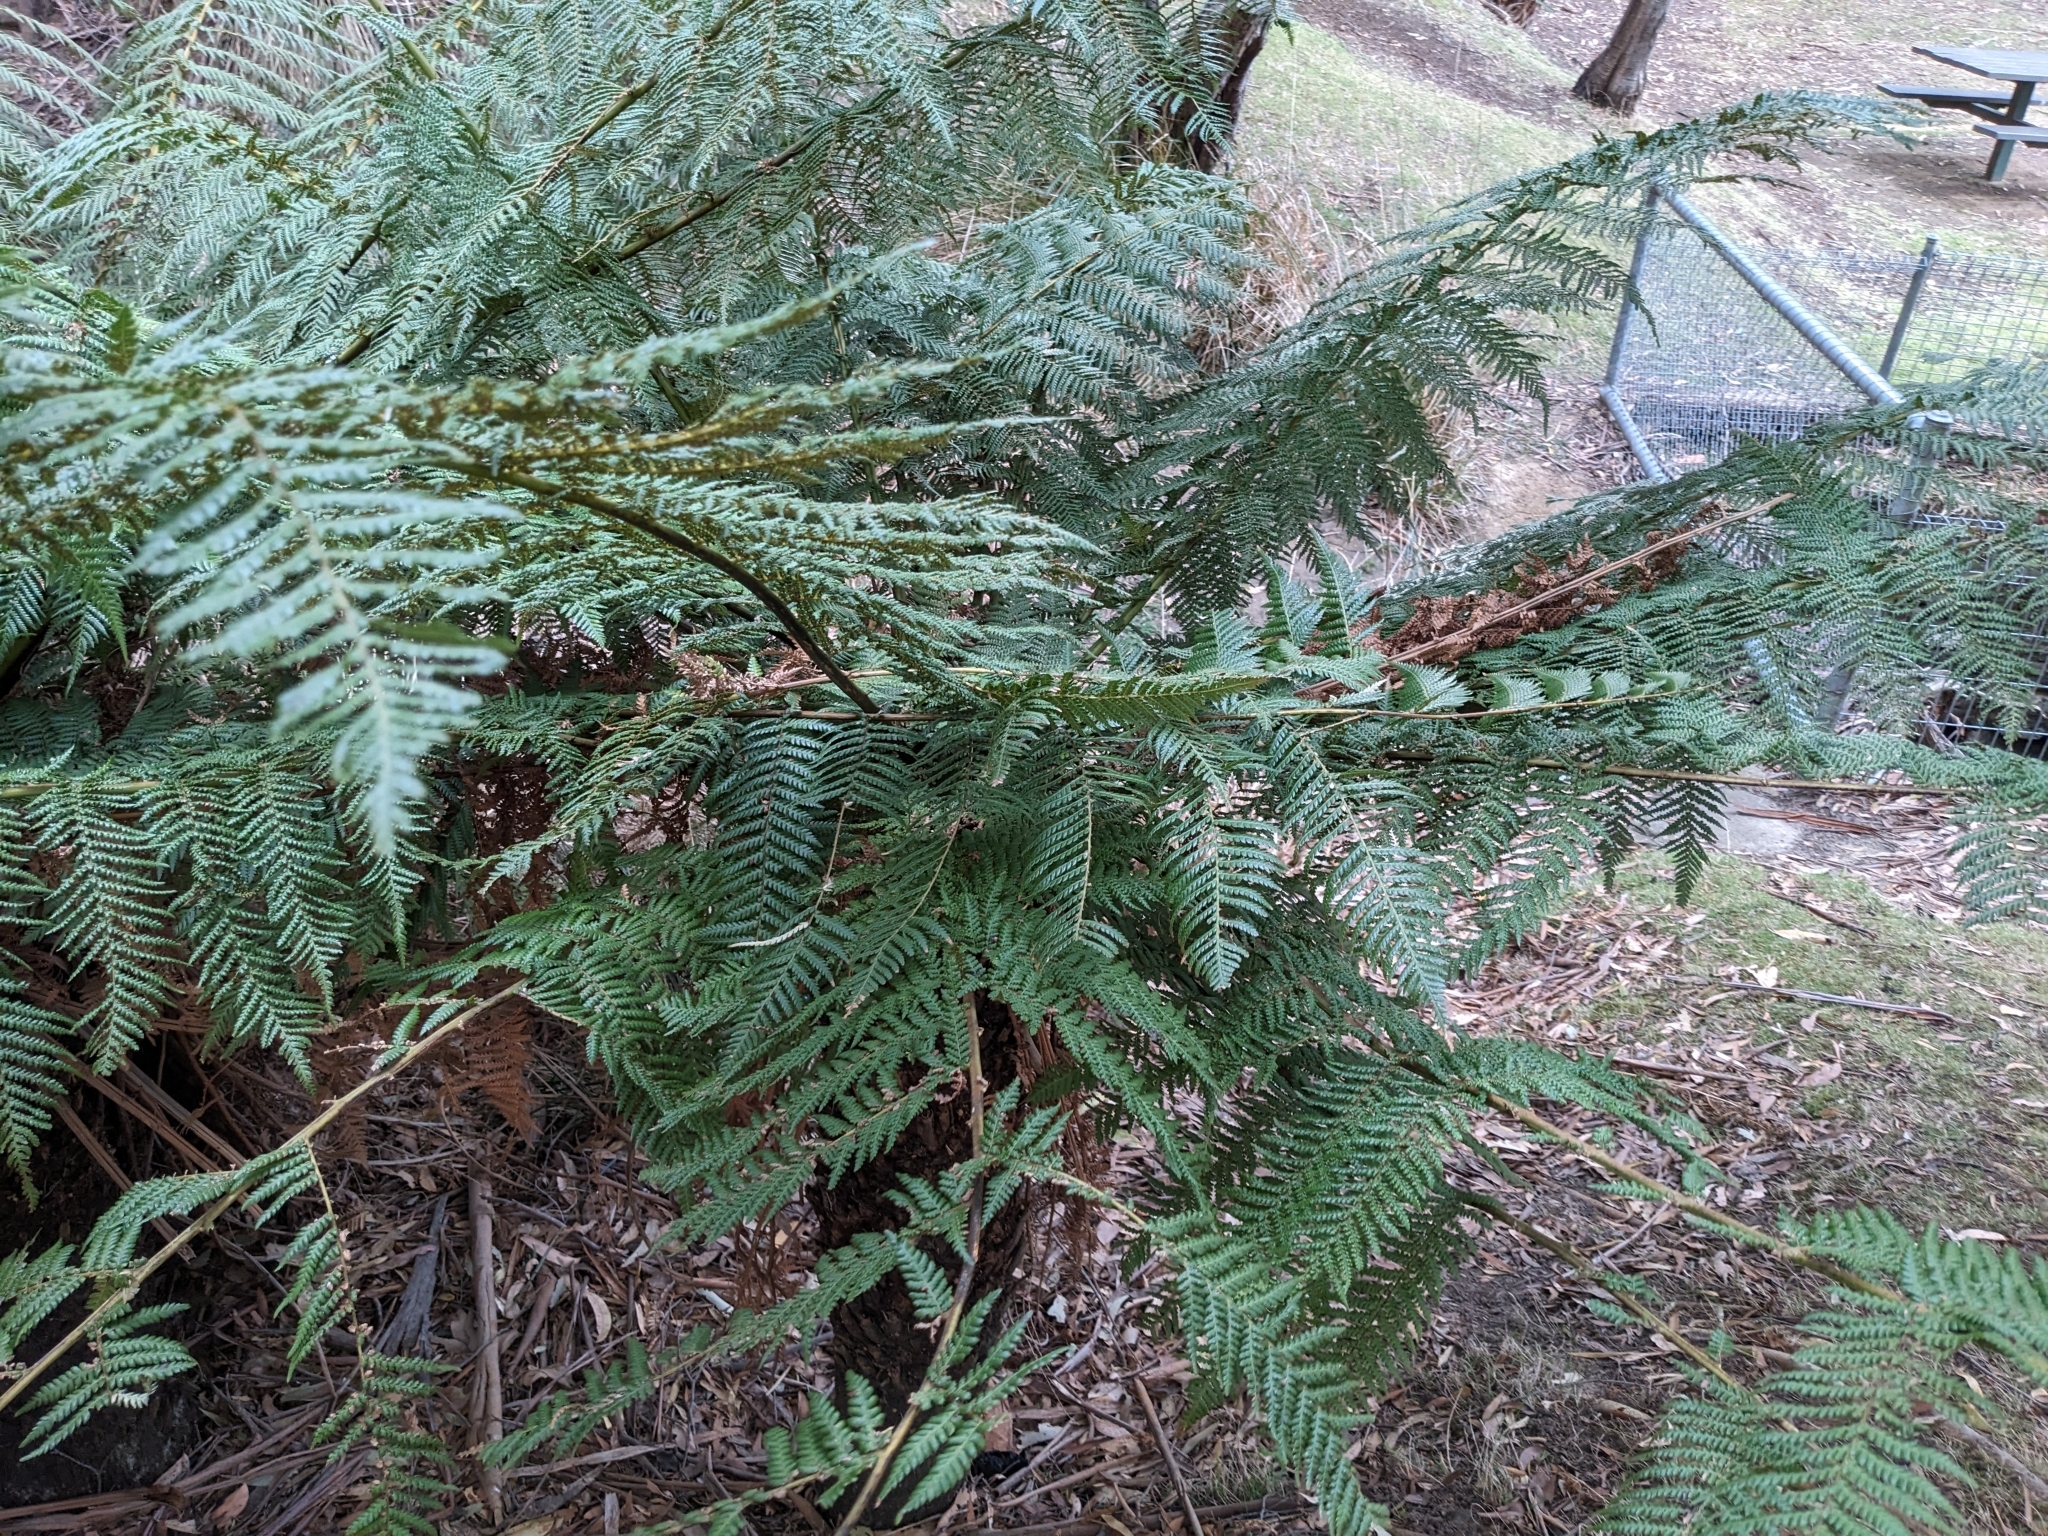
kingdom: Plantae
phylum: Tracheophyta
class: Polypodiopsida
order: Cyatheales
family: Dicksoniaceae
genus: Dicksonia
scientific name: Dicksonia antarctica
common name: Australian treefern
